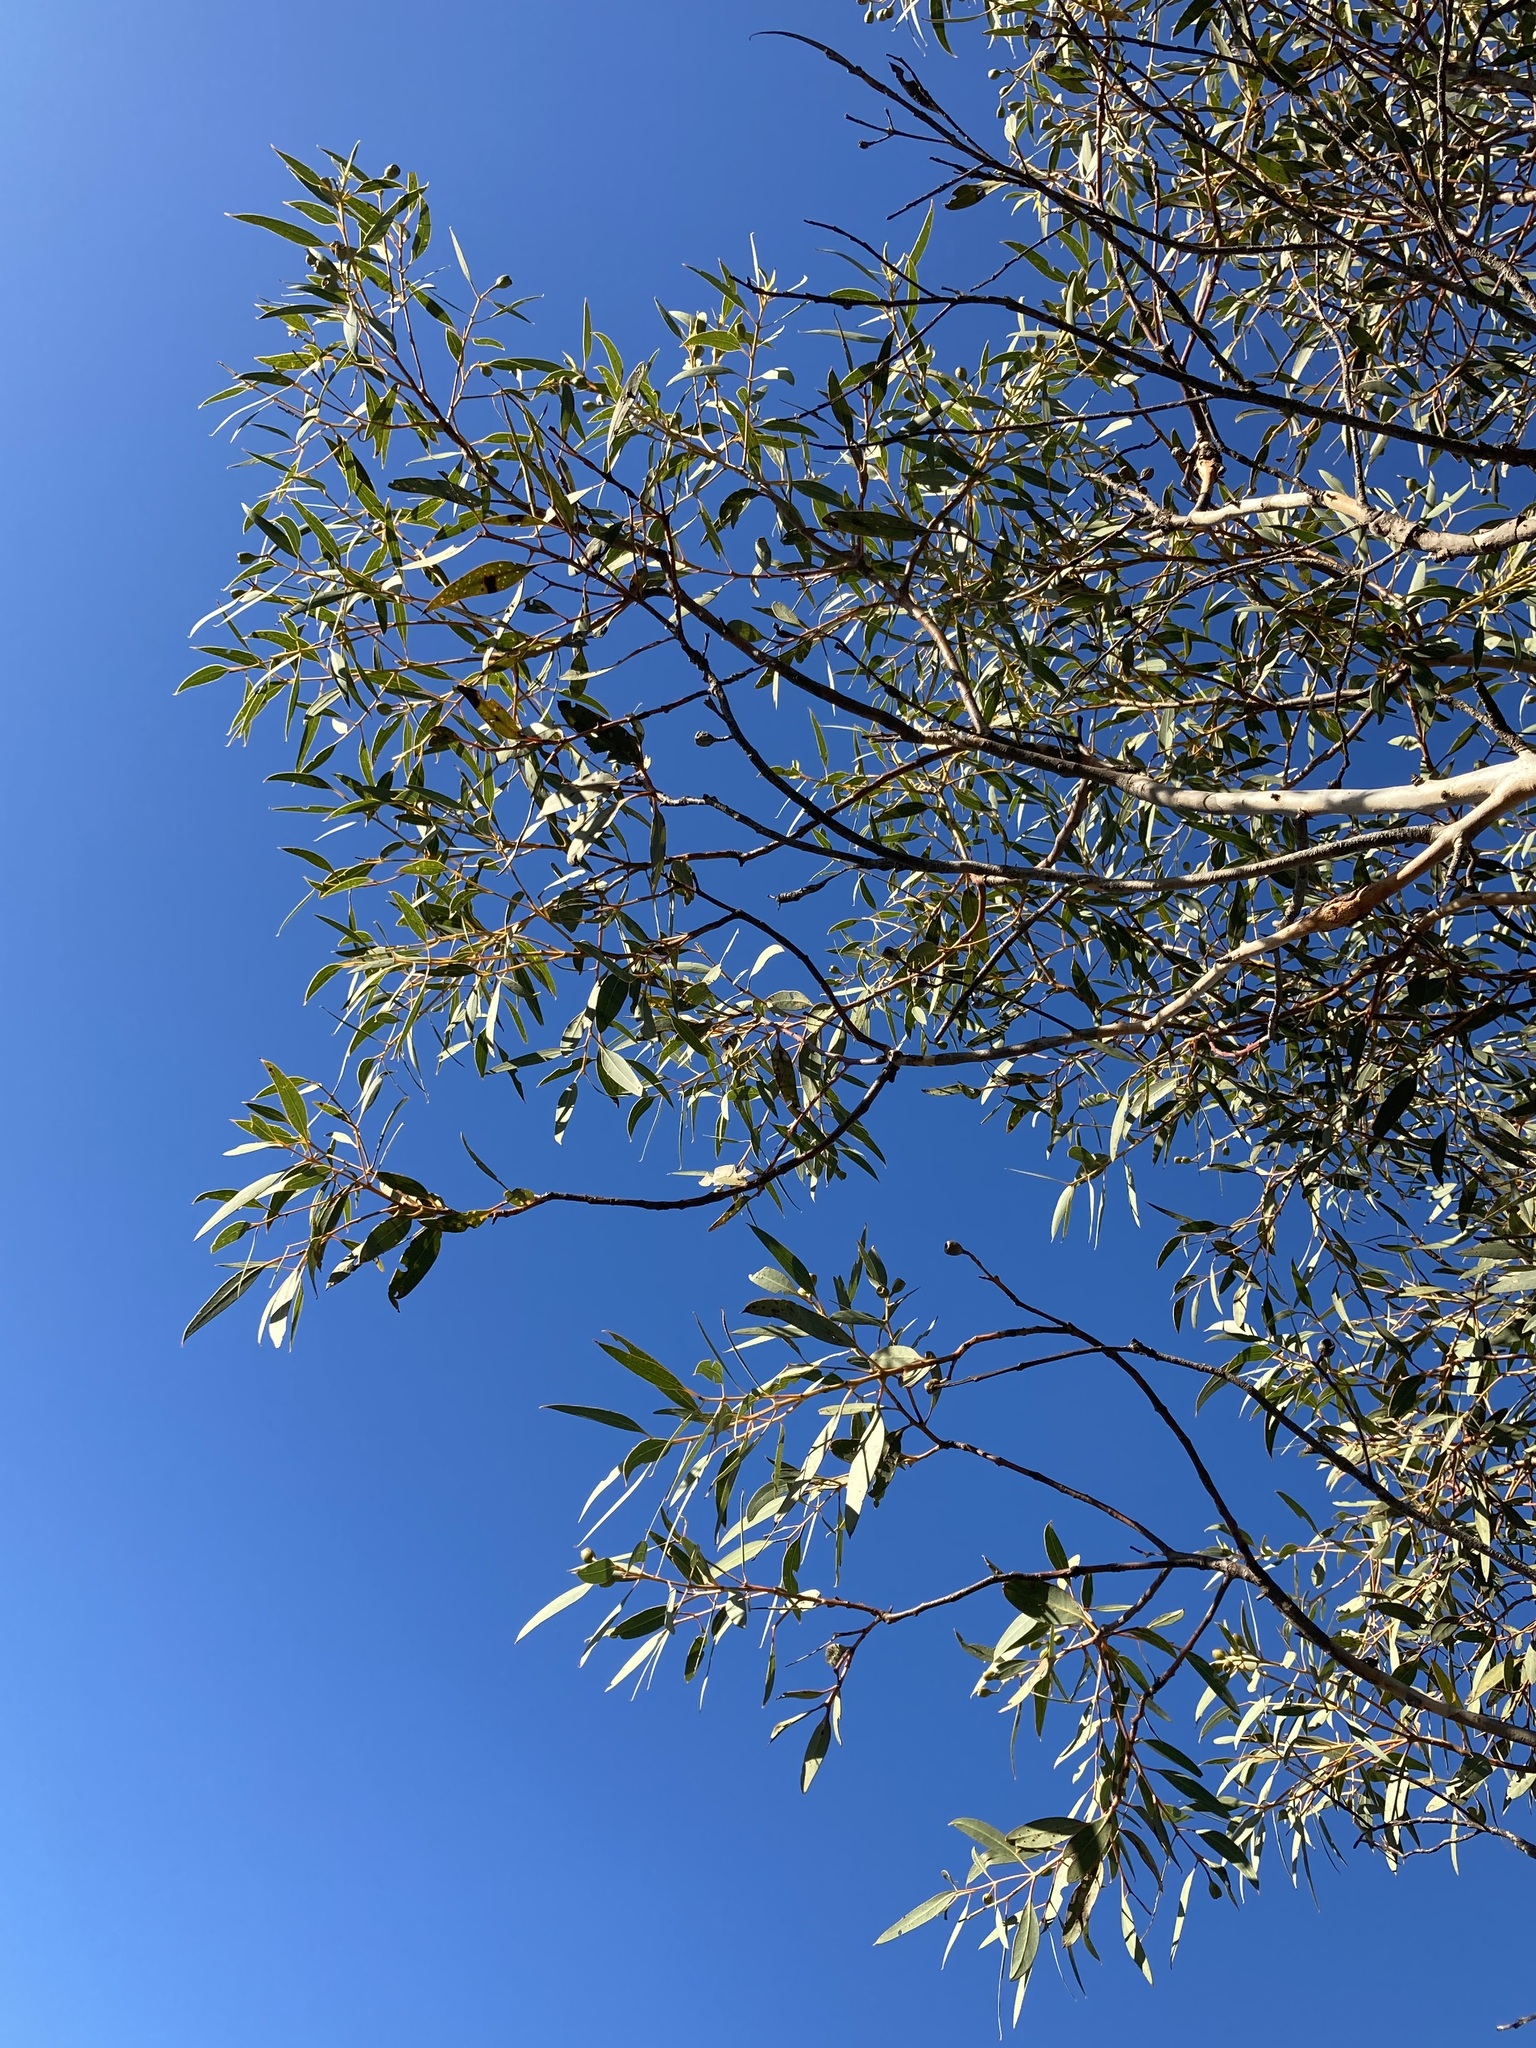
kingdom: Plantae
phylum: Tracheophyta
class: Magnoliopsida
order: Myrtales
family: Myrtaceae
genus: Eucalyptus
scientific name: Eucalyptus gittinsii
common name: Northern sandplain mallee
